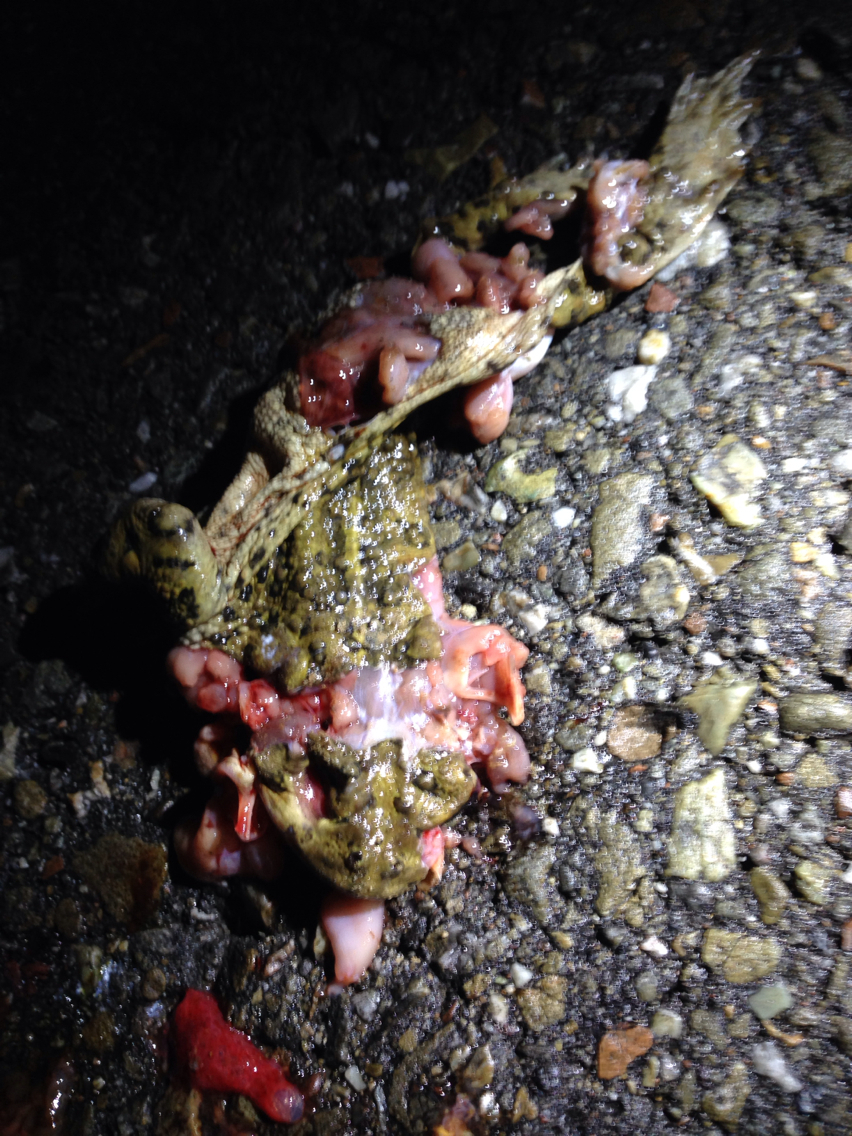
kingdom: Animalia
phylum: Chordata
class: Amphibia
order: Anura
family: Bufonidae
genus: Anaxyrus
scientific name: Anaxyrus boreas
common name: Western toad
